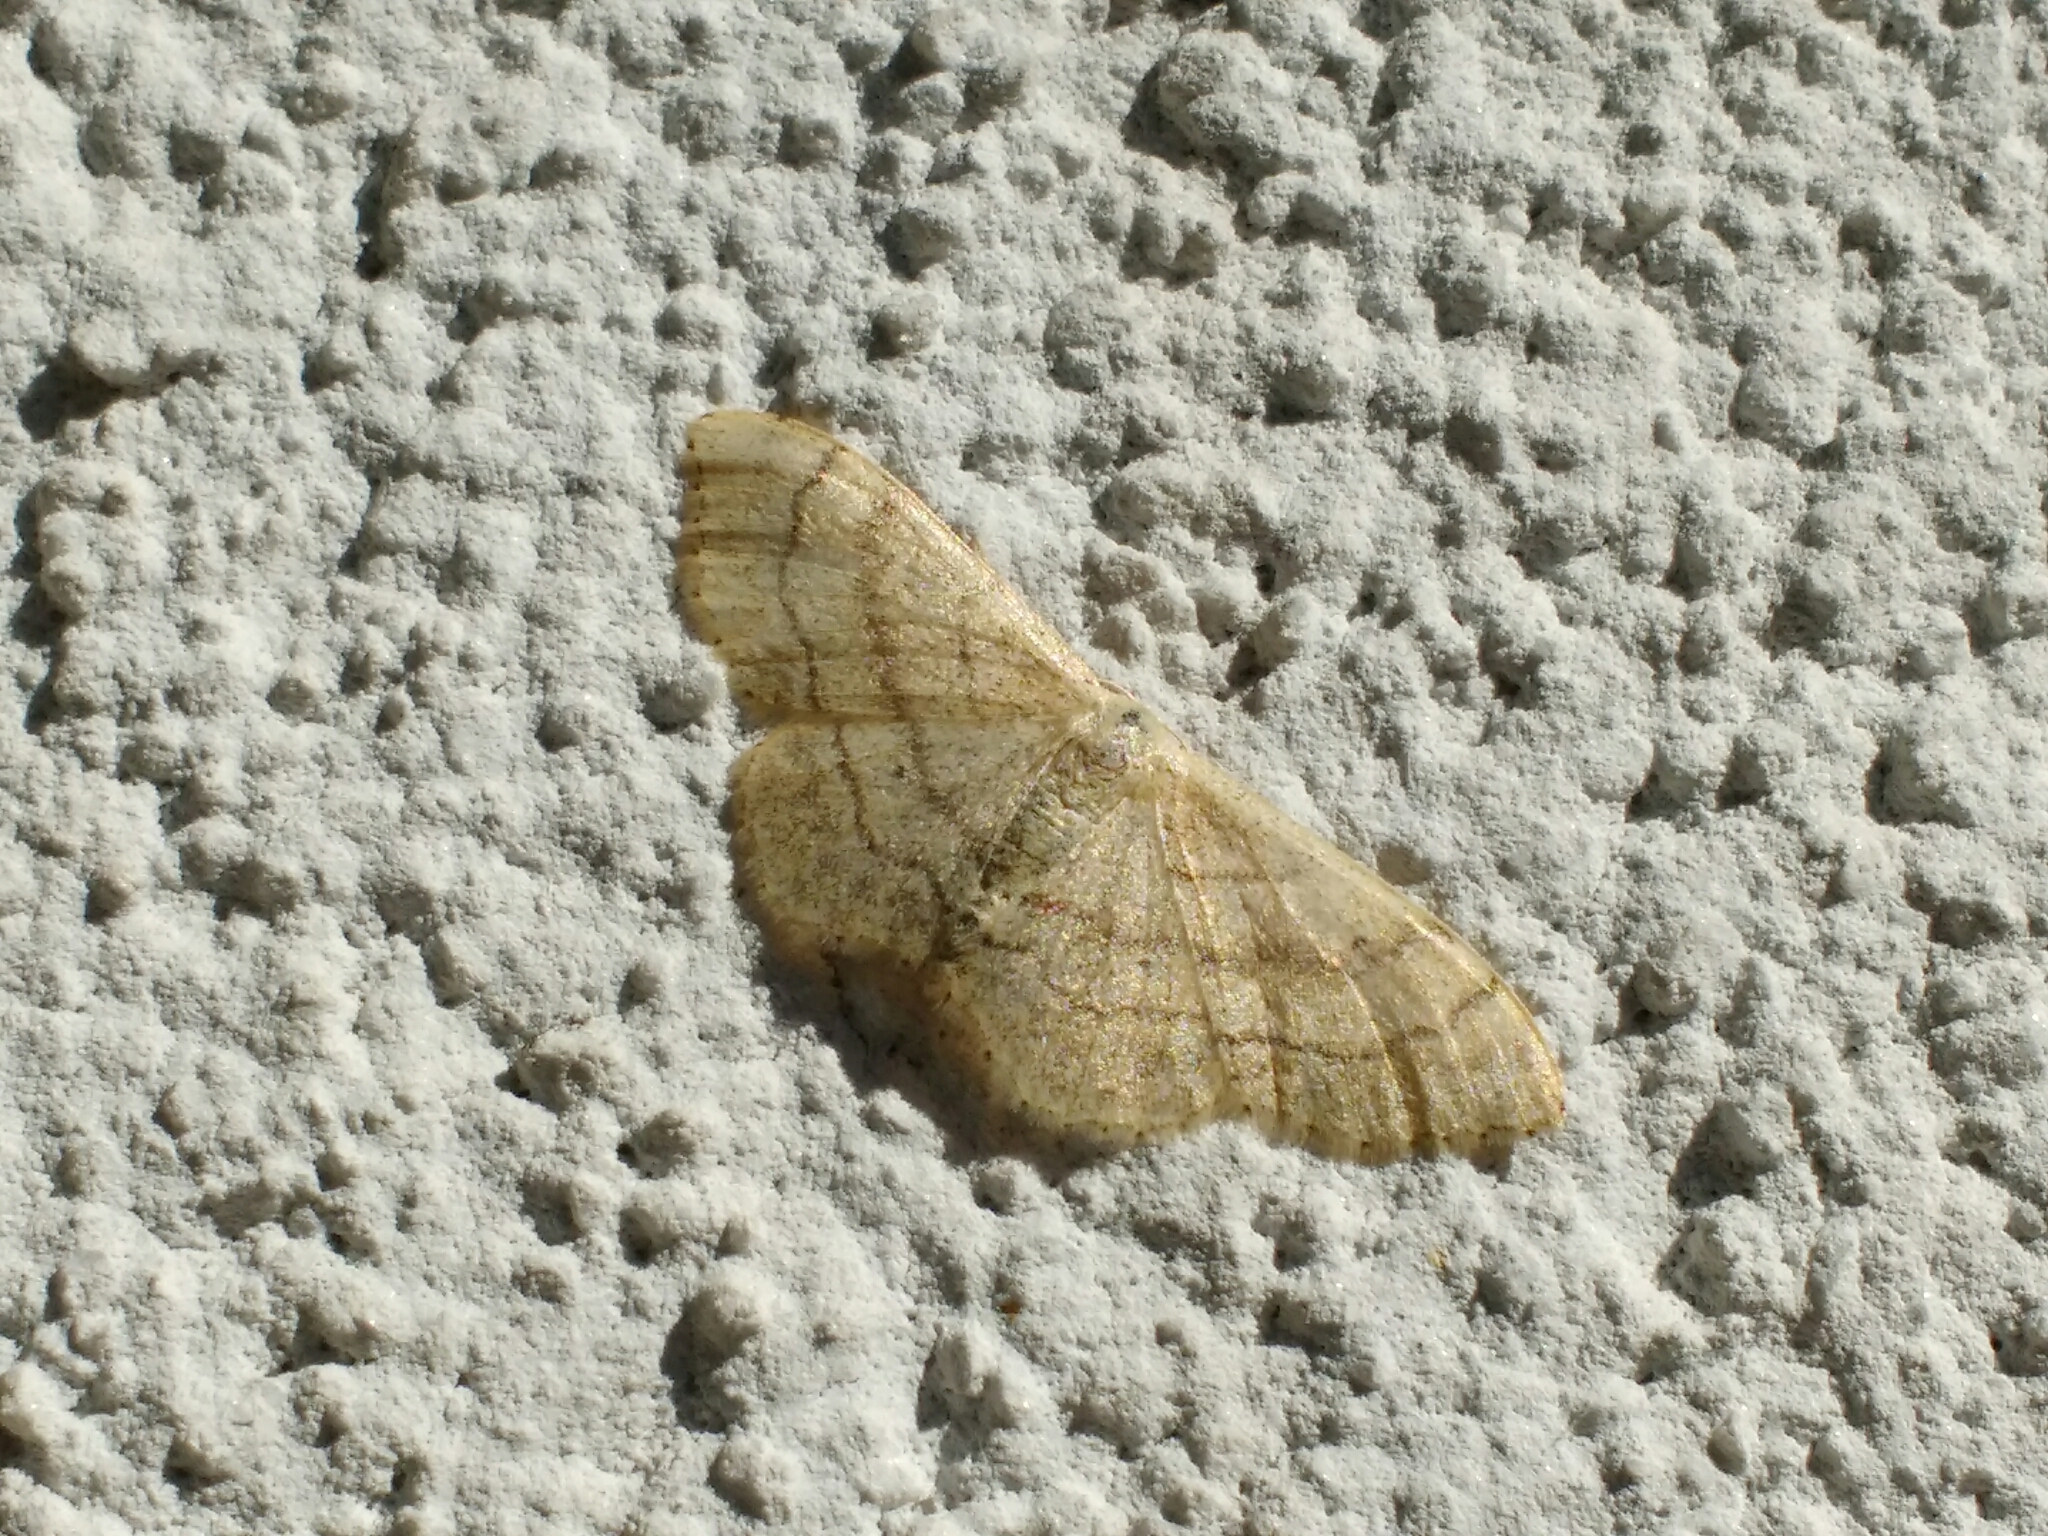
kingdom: Animalia
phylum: Arthropoda
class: Insecta
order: Lepidoptera
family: Geometridae
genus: Idaea
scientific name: Idaea aversata
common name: Riband wave
